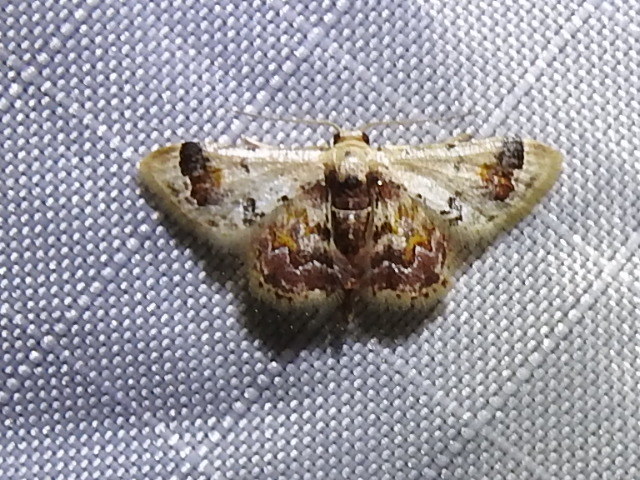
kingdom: Animalia
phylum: Arthropoda
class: Insecta
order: Lepidoptera
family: Geometridae
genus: Idaea
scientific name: Idaea asceta
